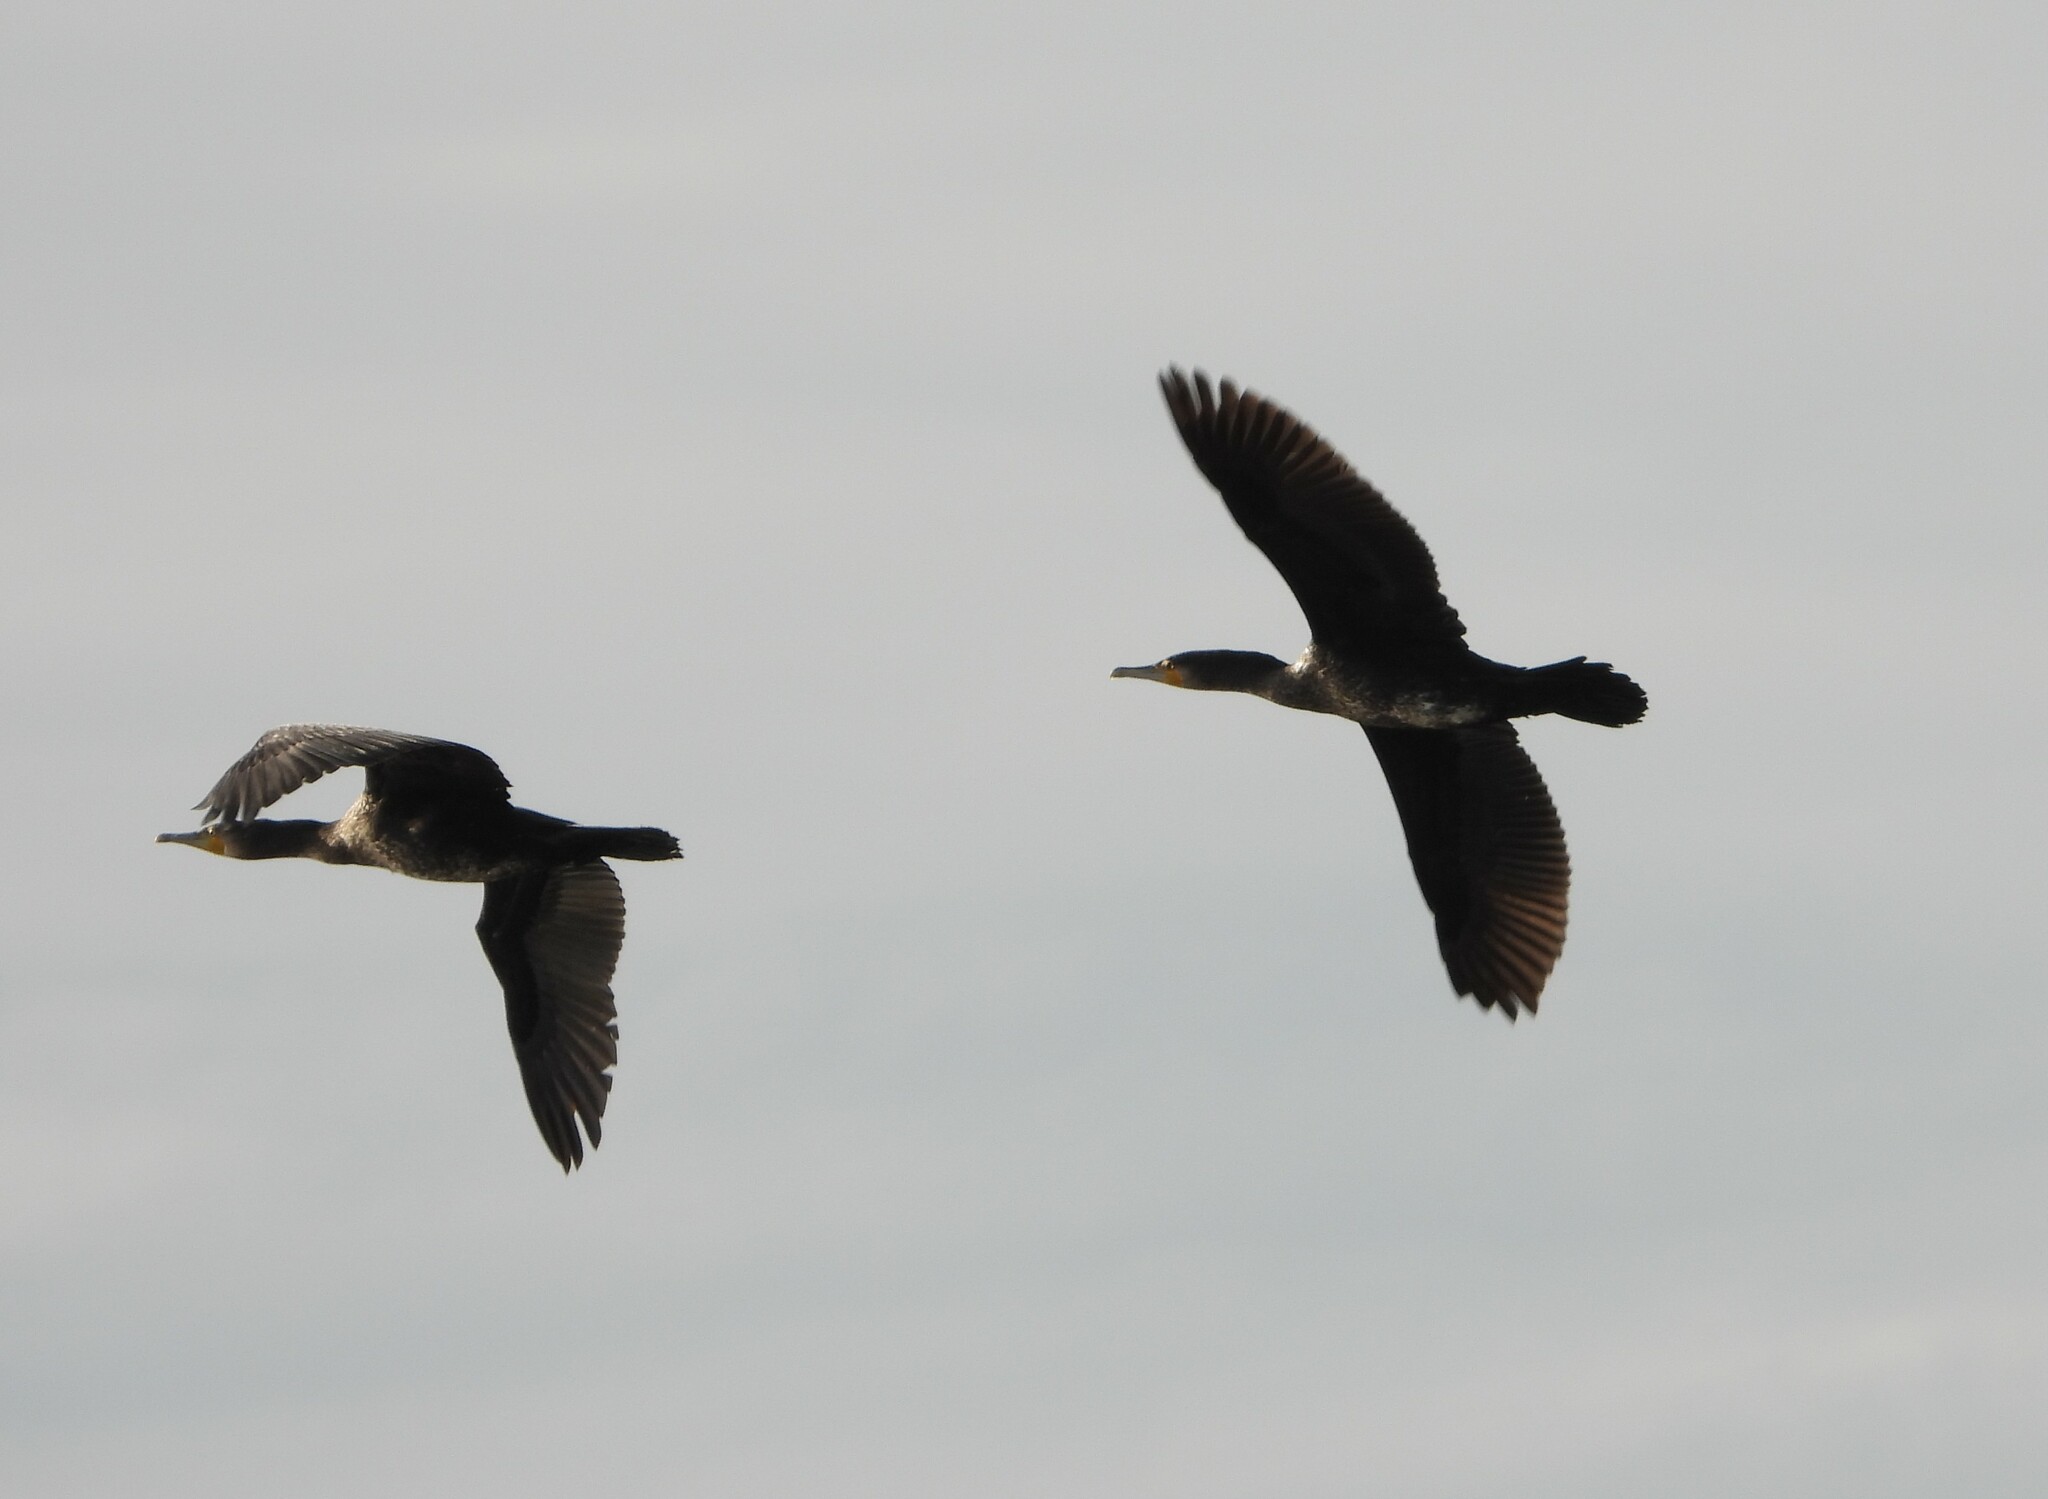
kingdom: Animalia
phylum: Chordata
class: Aves
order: Suliformes
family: Phalacrocoracidae
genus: Phalacrocorax
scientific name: Phalacrocorax carbo
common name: Great cormorant
